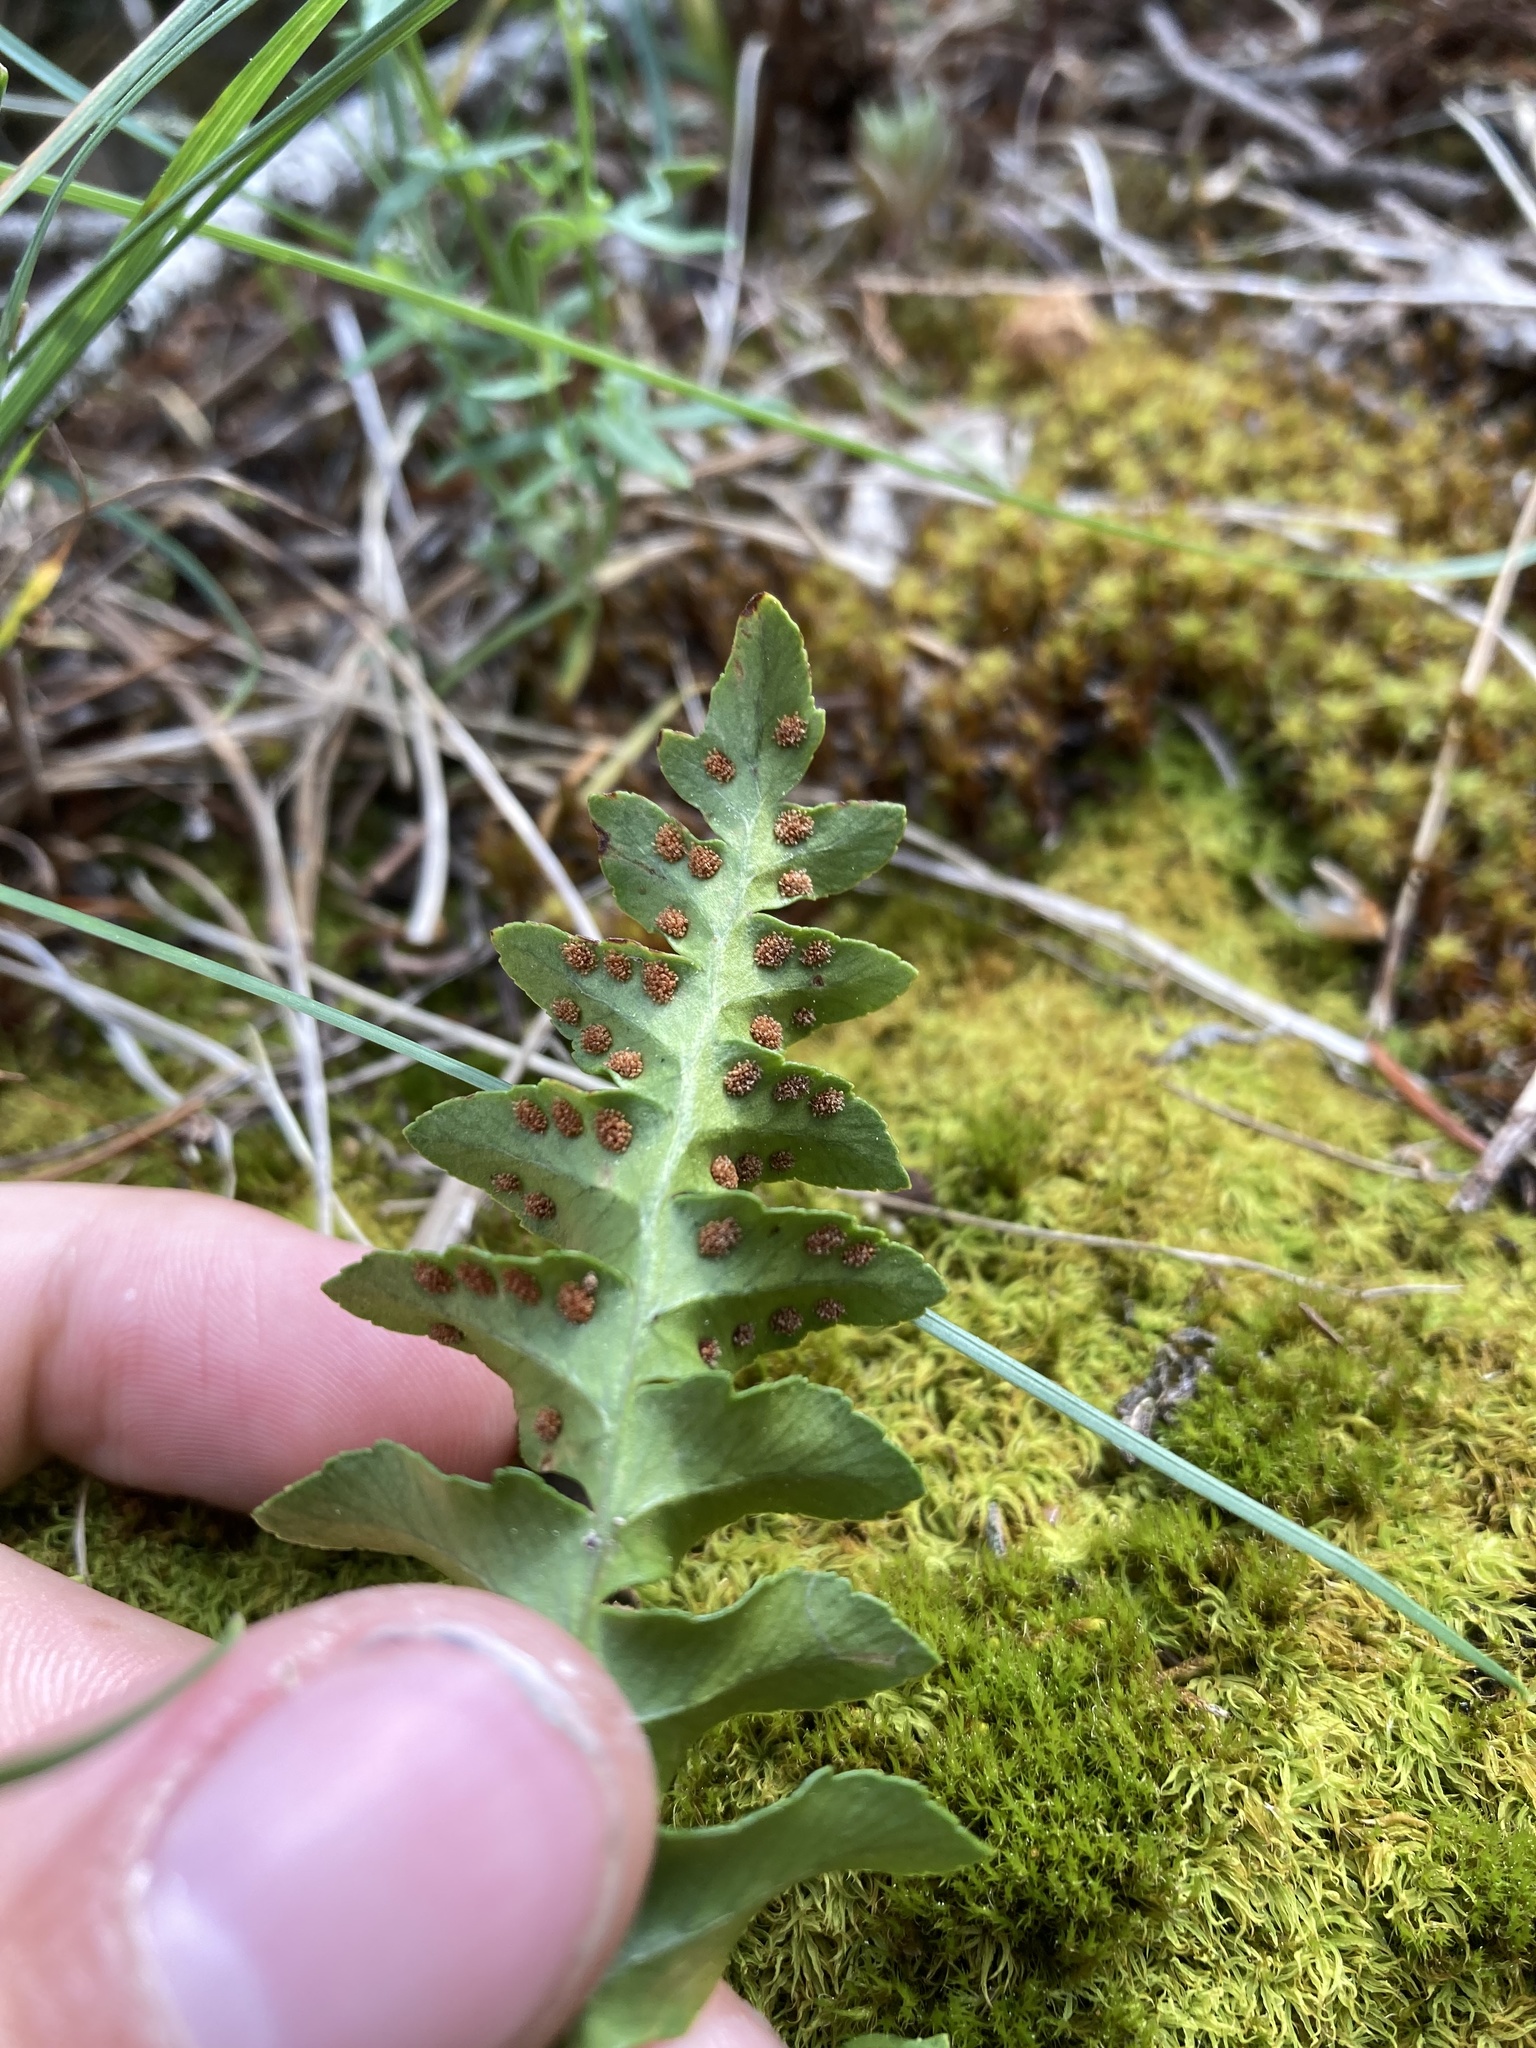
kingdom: Plantae
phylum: Tracheophyta
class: Polypodiopsida
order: Polypodiales
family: Polypodiaceae
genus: Polypodium
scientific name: Polypodium hesperium
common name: Western polypody
